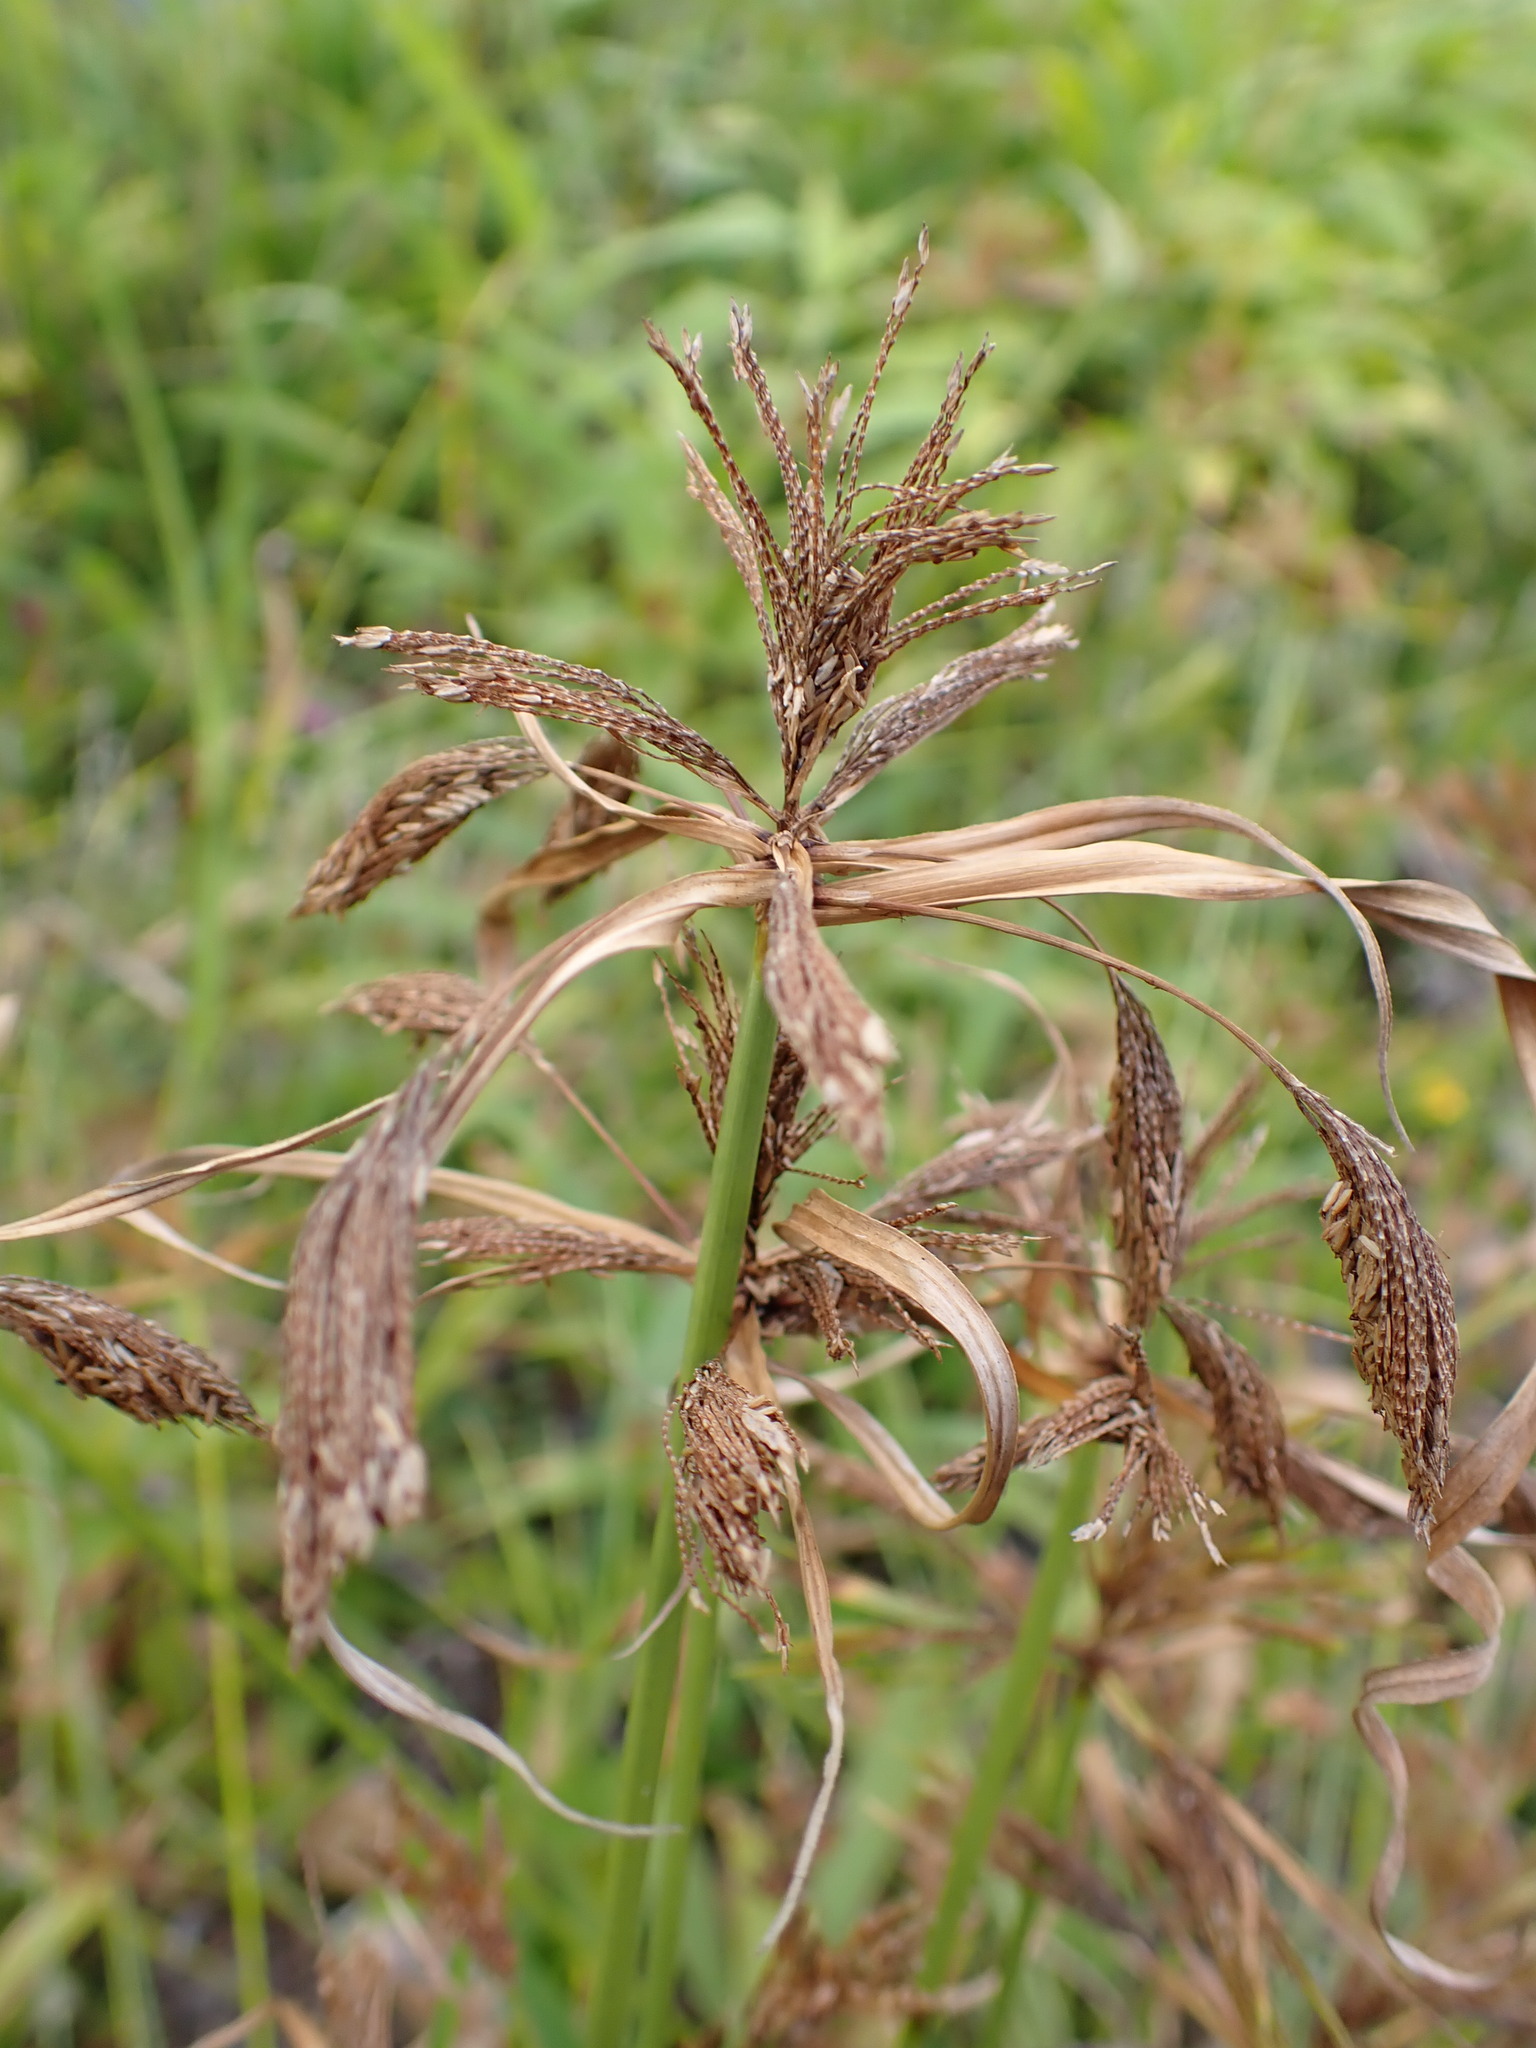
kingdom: Plantae
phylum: Tracheophyta
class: Liliopsida
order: Poales
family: Cyperaceae
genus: Cyperus
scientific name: Cyperus polystachyos
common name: Bunchy flat sedge
